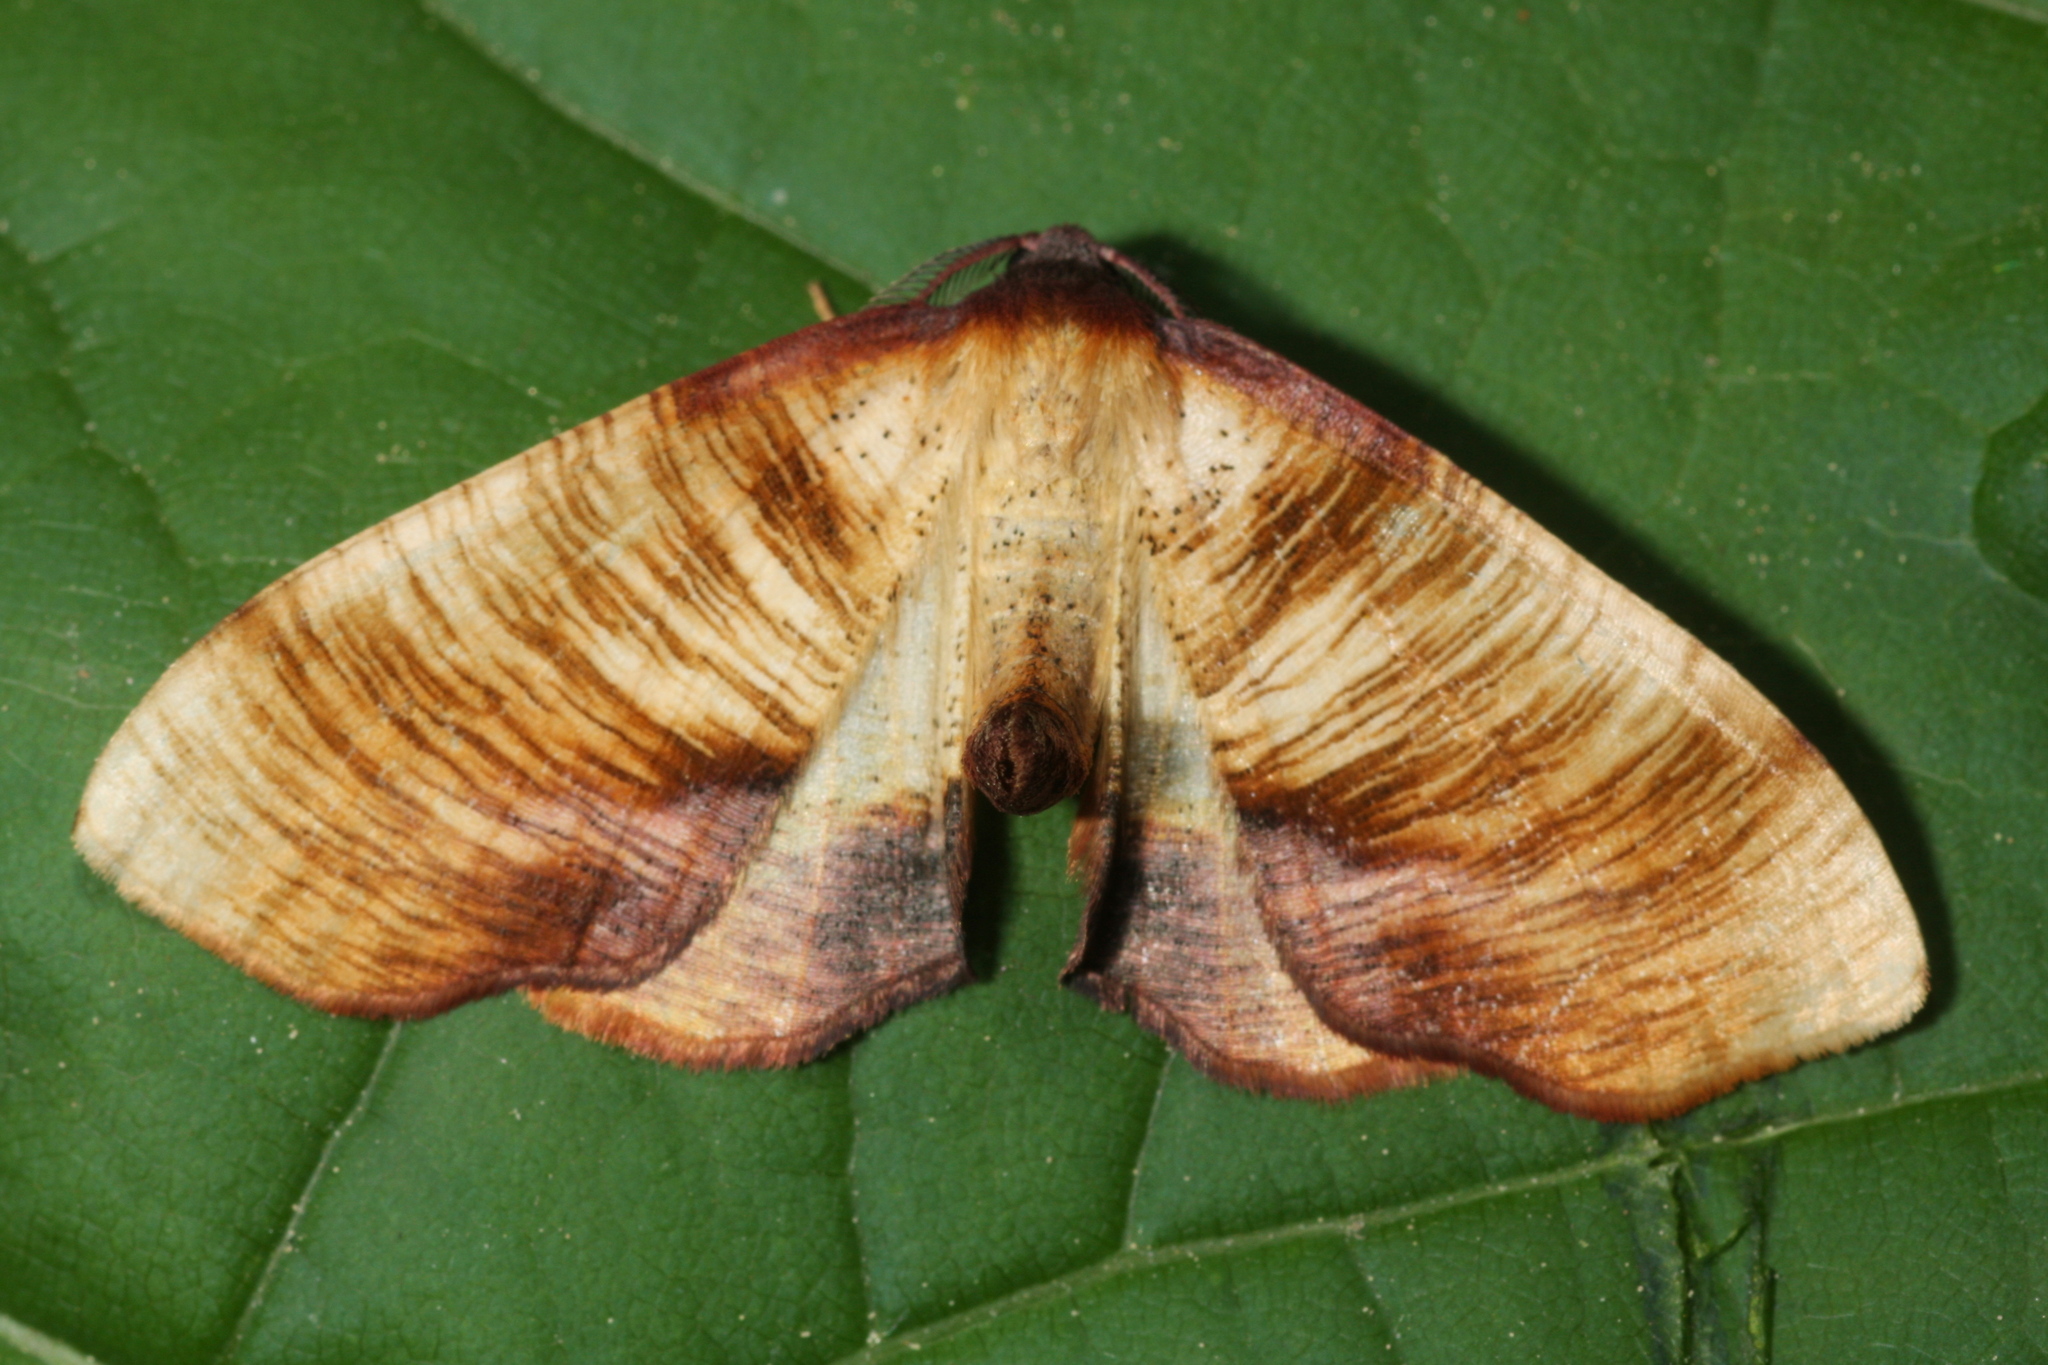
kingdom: Animalia
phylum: Arthropoda
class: Insecta
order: Lepidoptera
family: Geometridae
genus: Plagodis
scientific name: Plagodis dolabraria
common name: Scorched wing
